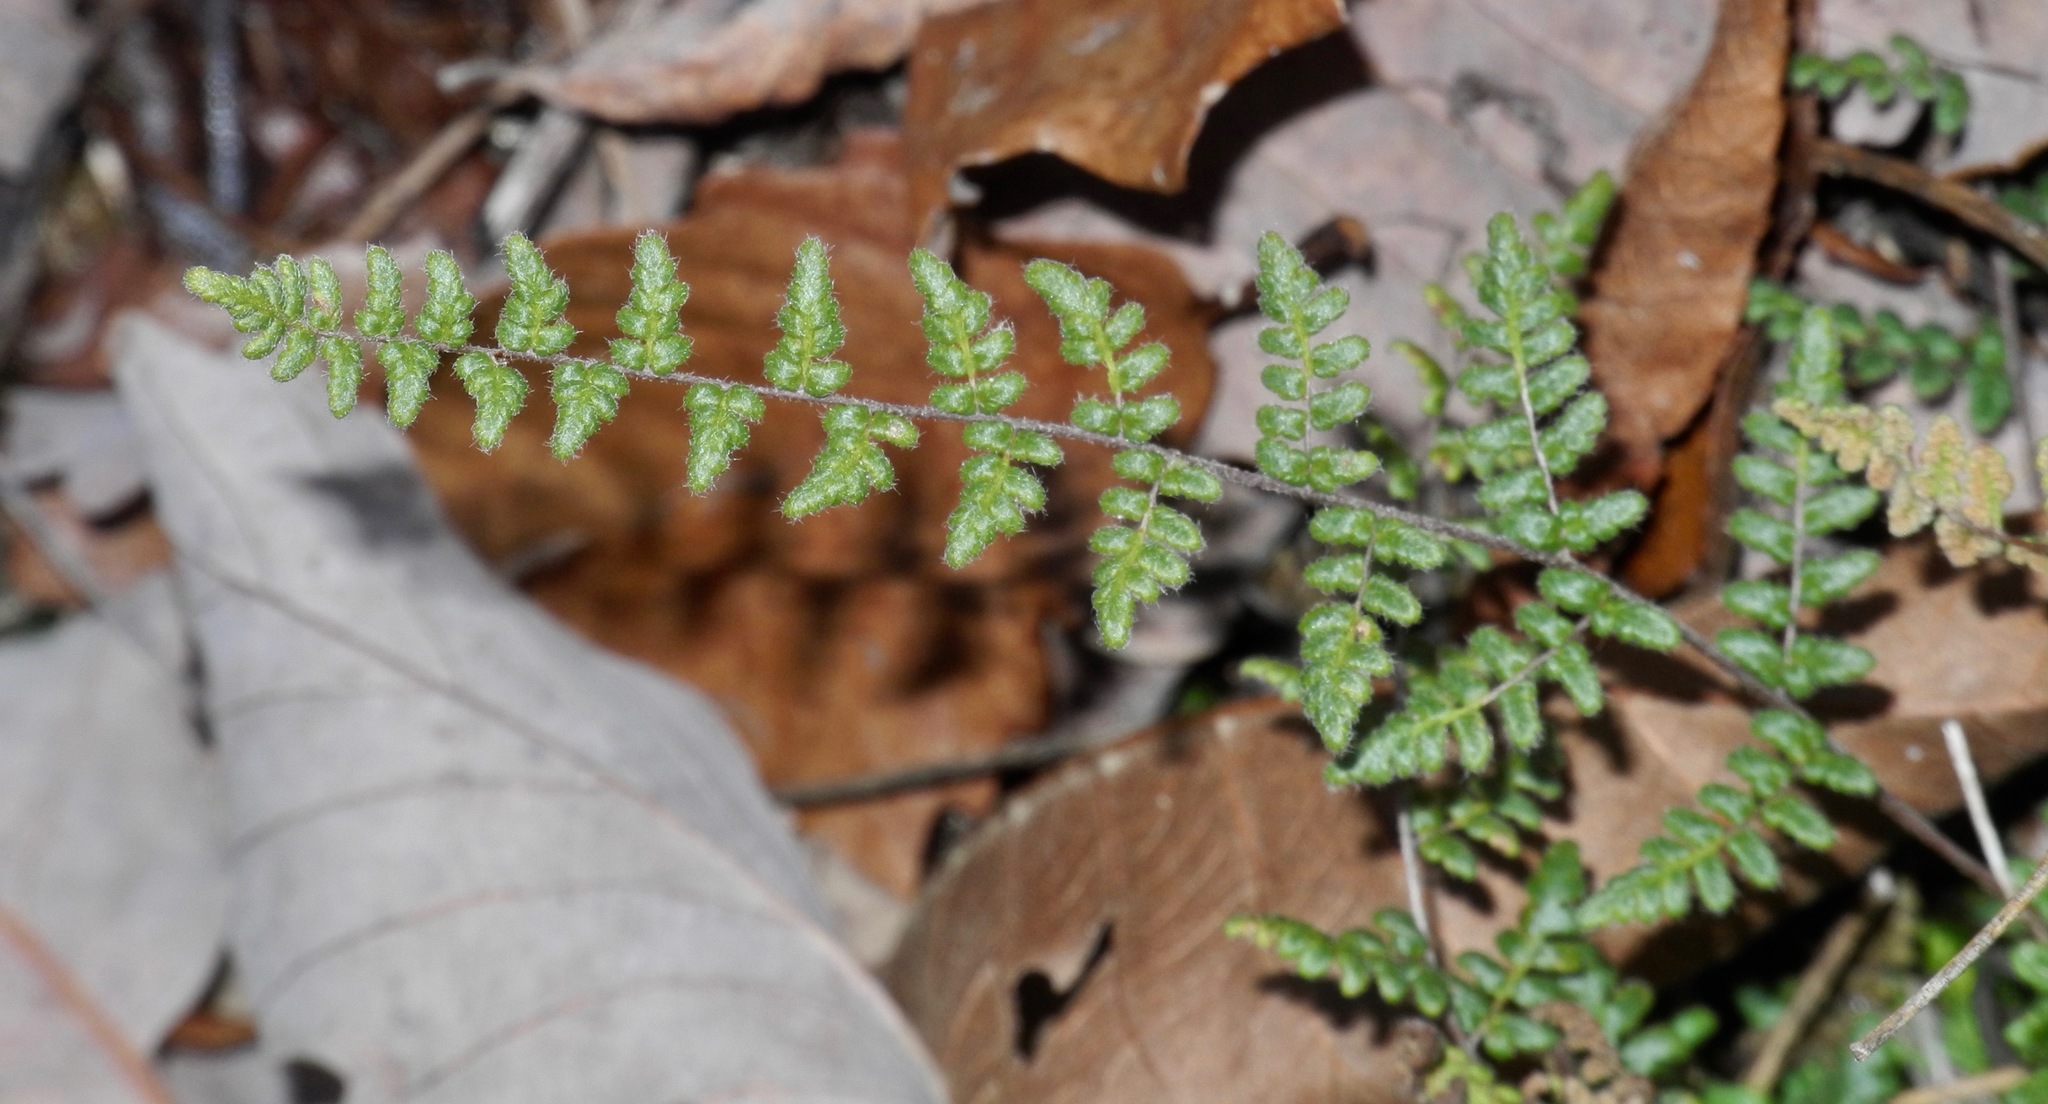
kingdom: Plantae
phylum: Tracheophyta
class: Polypodiopsida
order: Polypodiales
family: Pteridaceae
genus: Myriopteris
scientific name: Myriopteris lanosa
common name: Hairy lip fern
